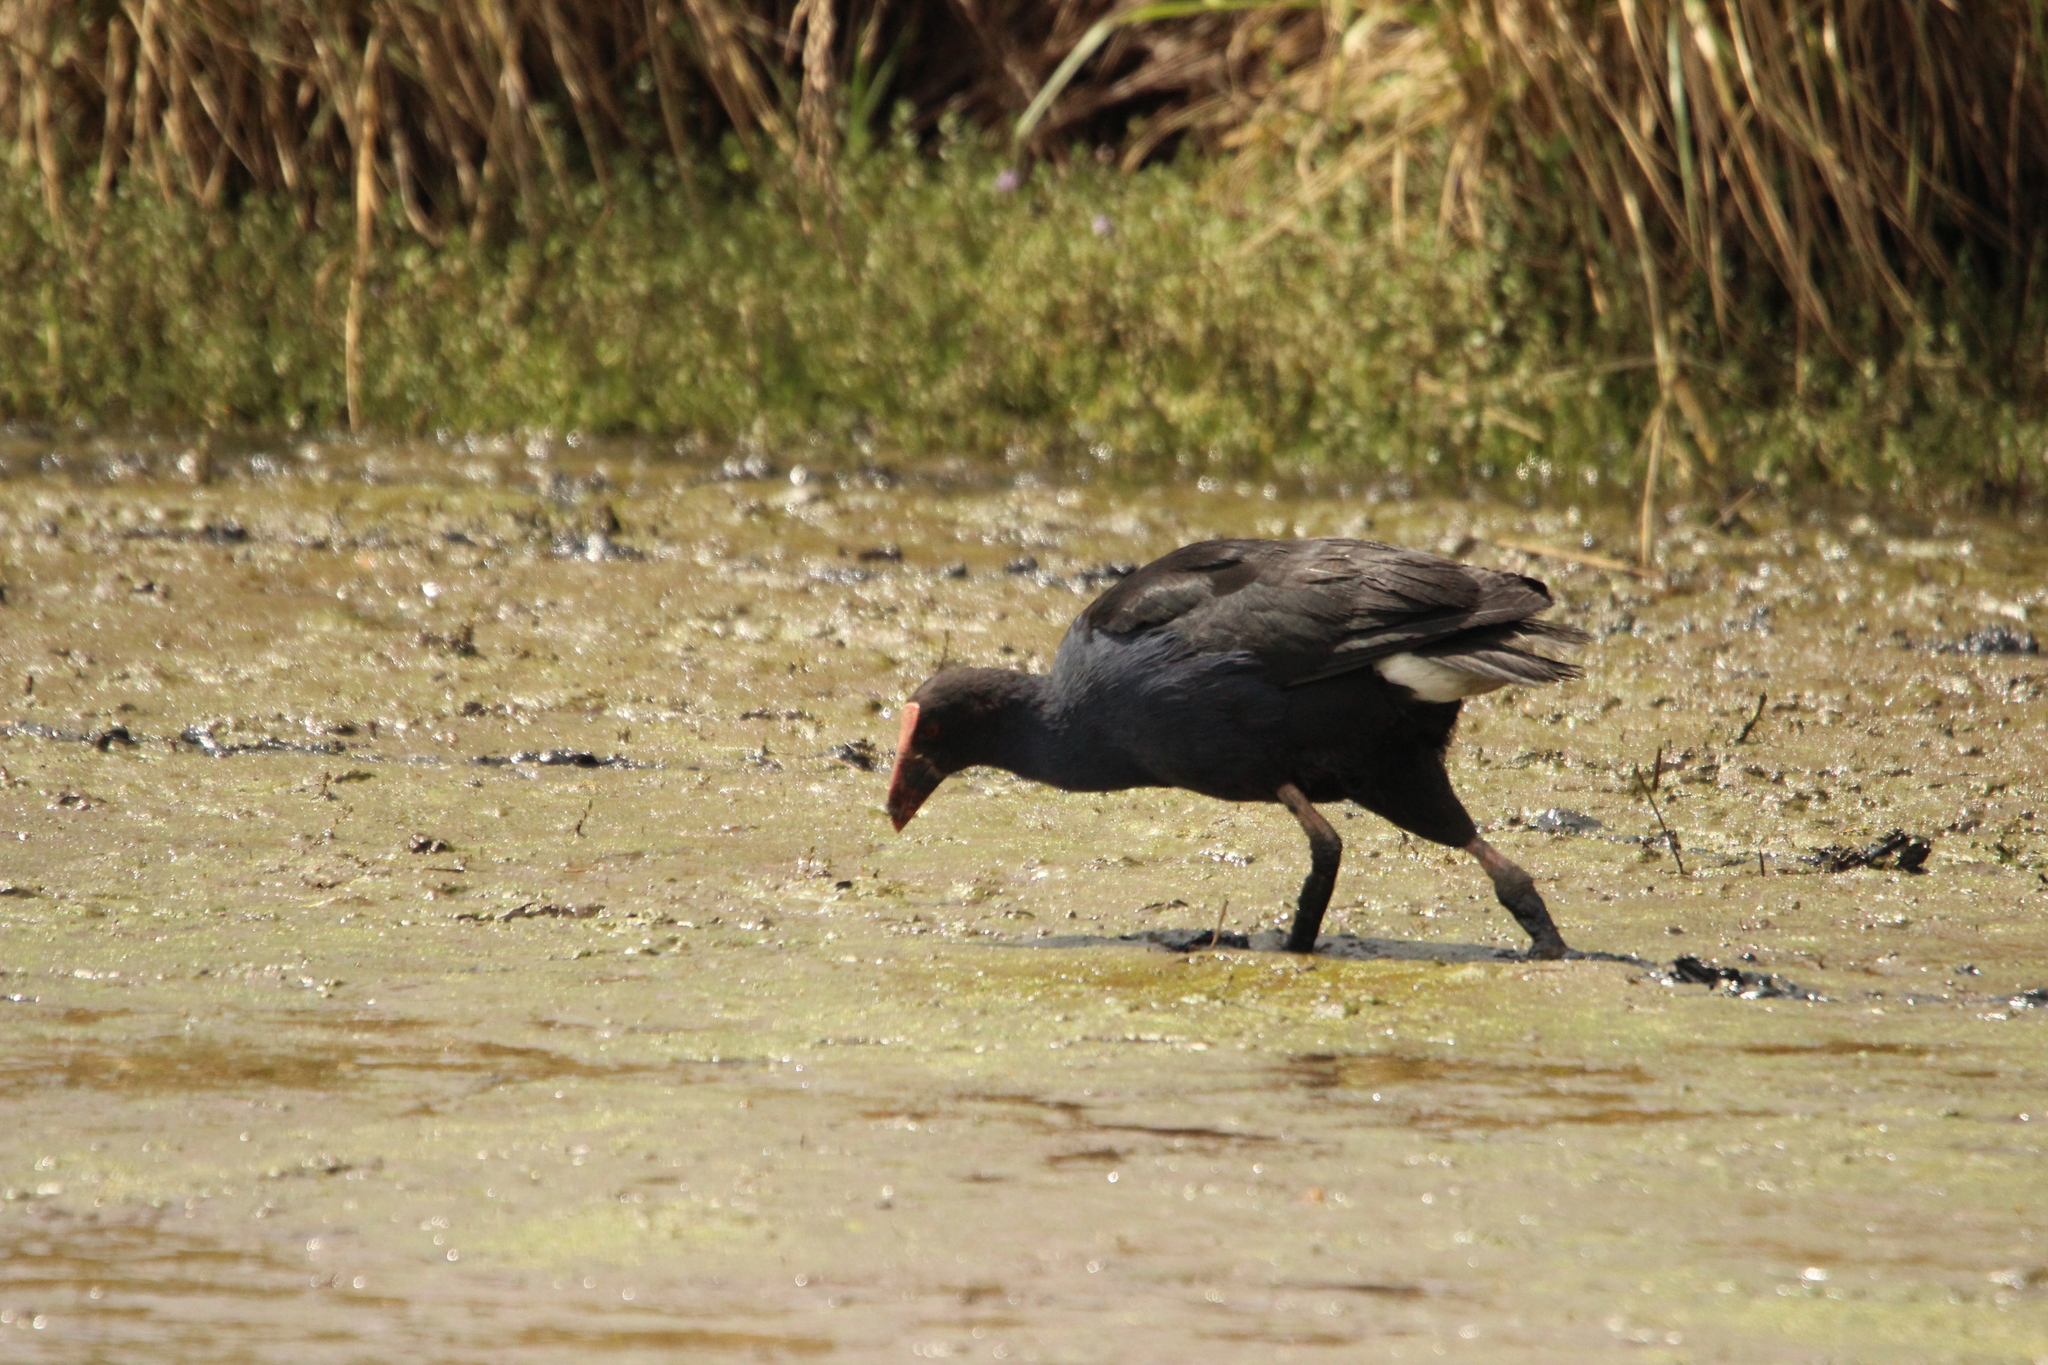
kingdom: Animalia
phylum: Chordata
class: Aves
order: Gruiformes
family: Rallidae
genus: Porphyrio
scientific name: Porphyrio melanotus
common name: Australasian swamphen
